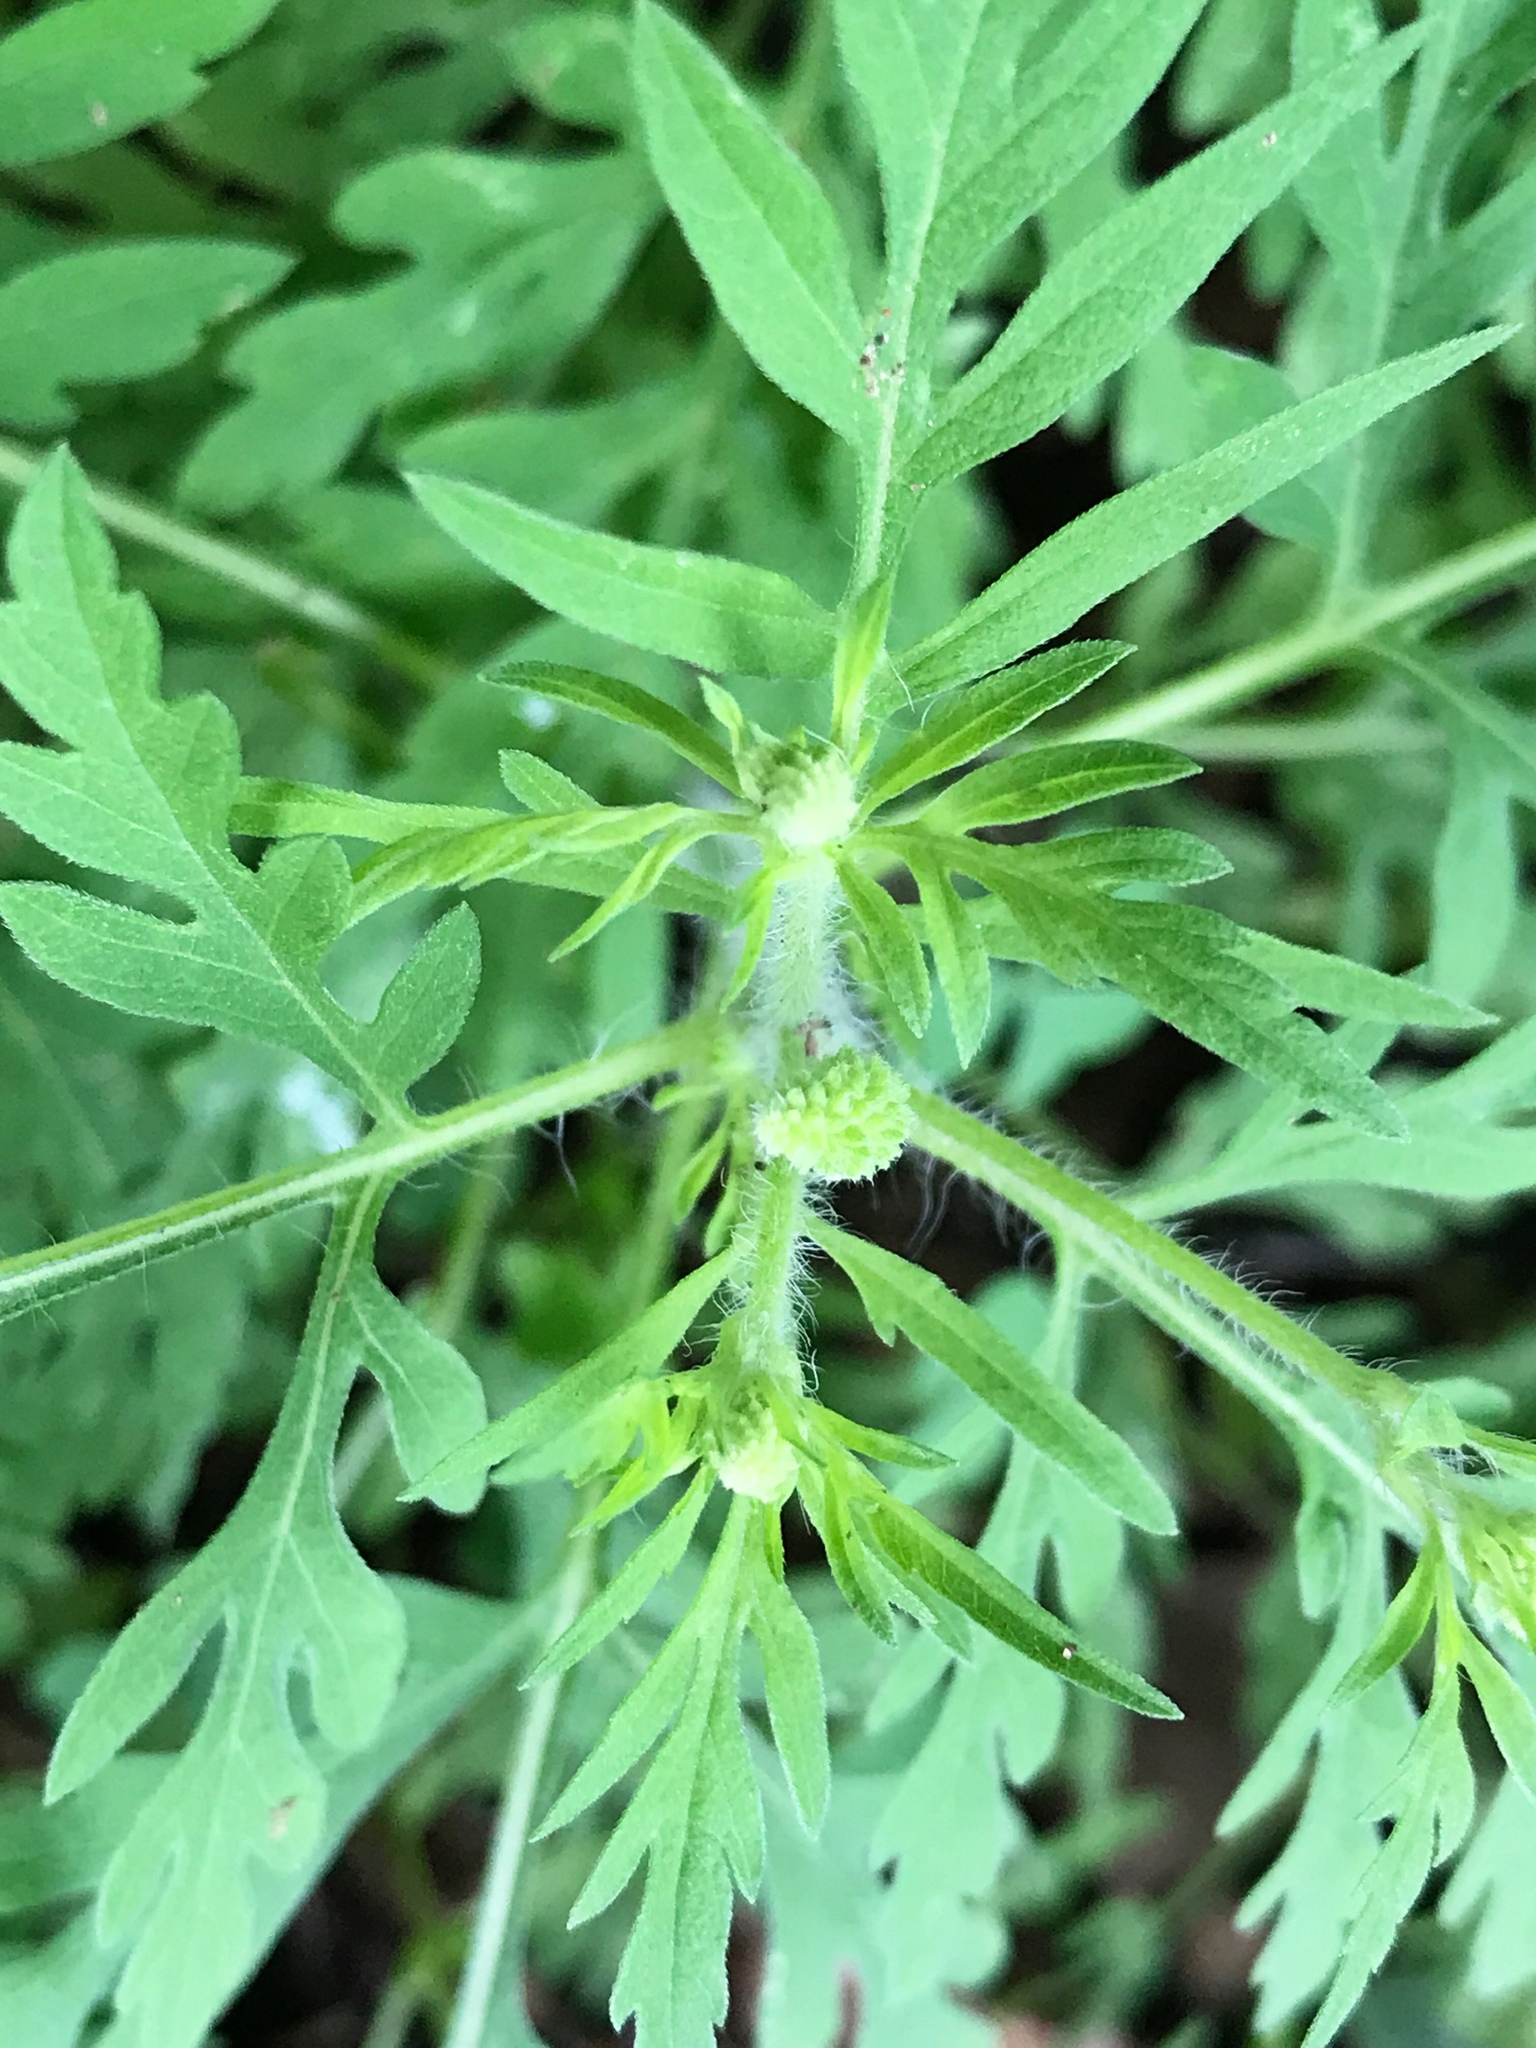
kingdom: Plantae
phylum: Tracheophyta
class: Magnoliopsida
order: Asterales
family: Asteraceae
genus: Ambrosia
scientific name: Ambrosia artemisiifolia
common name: Annual ragweed
